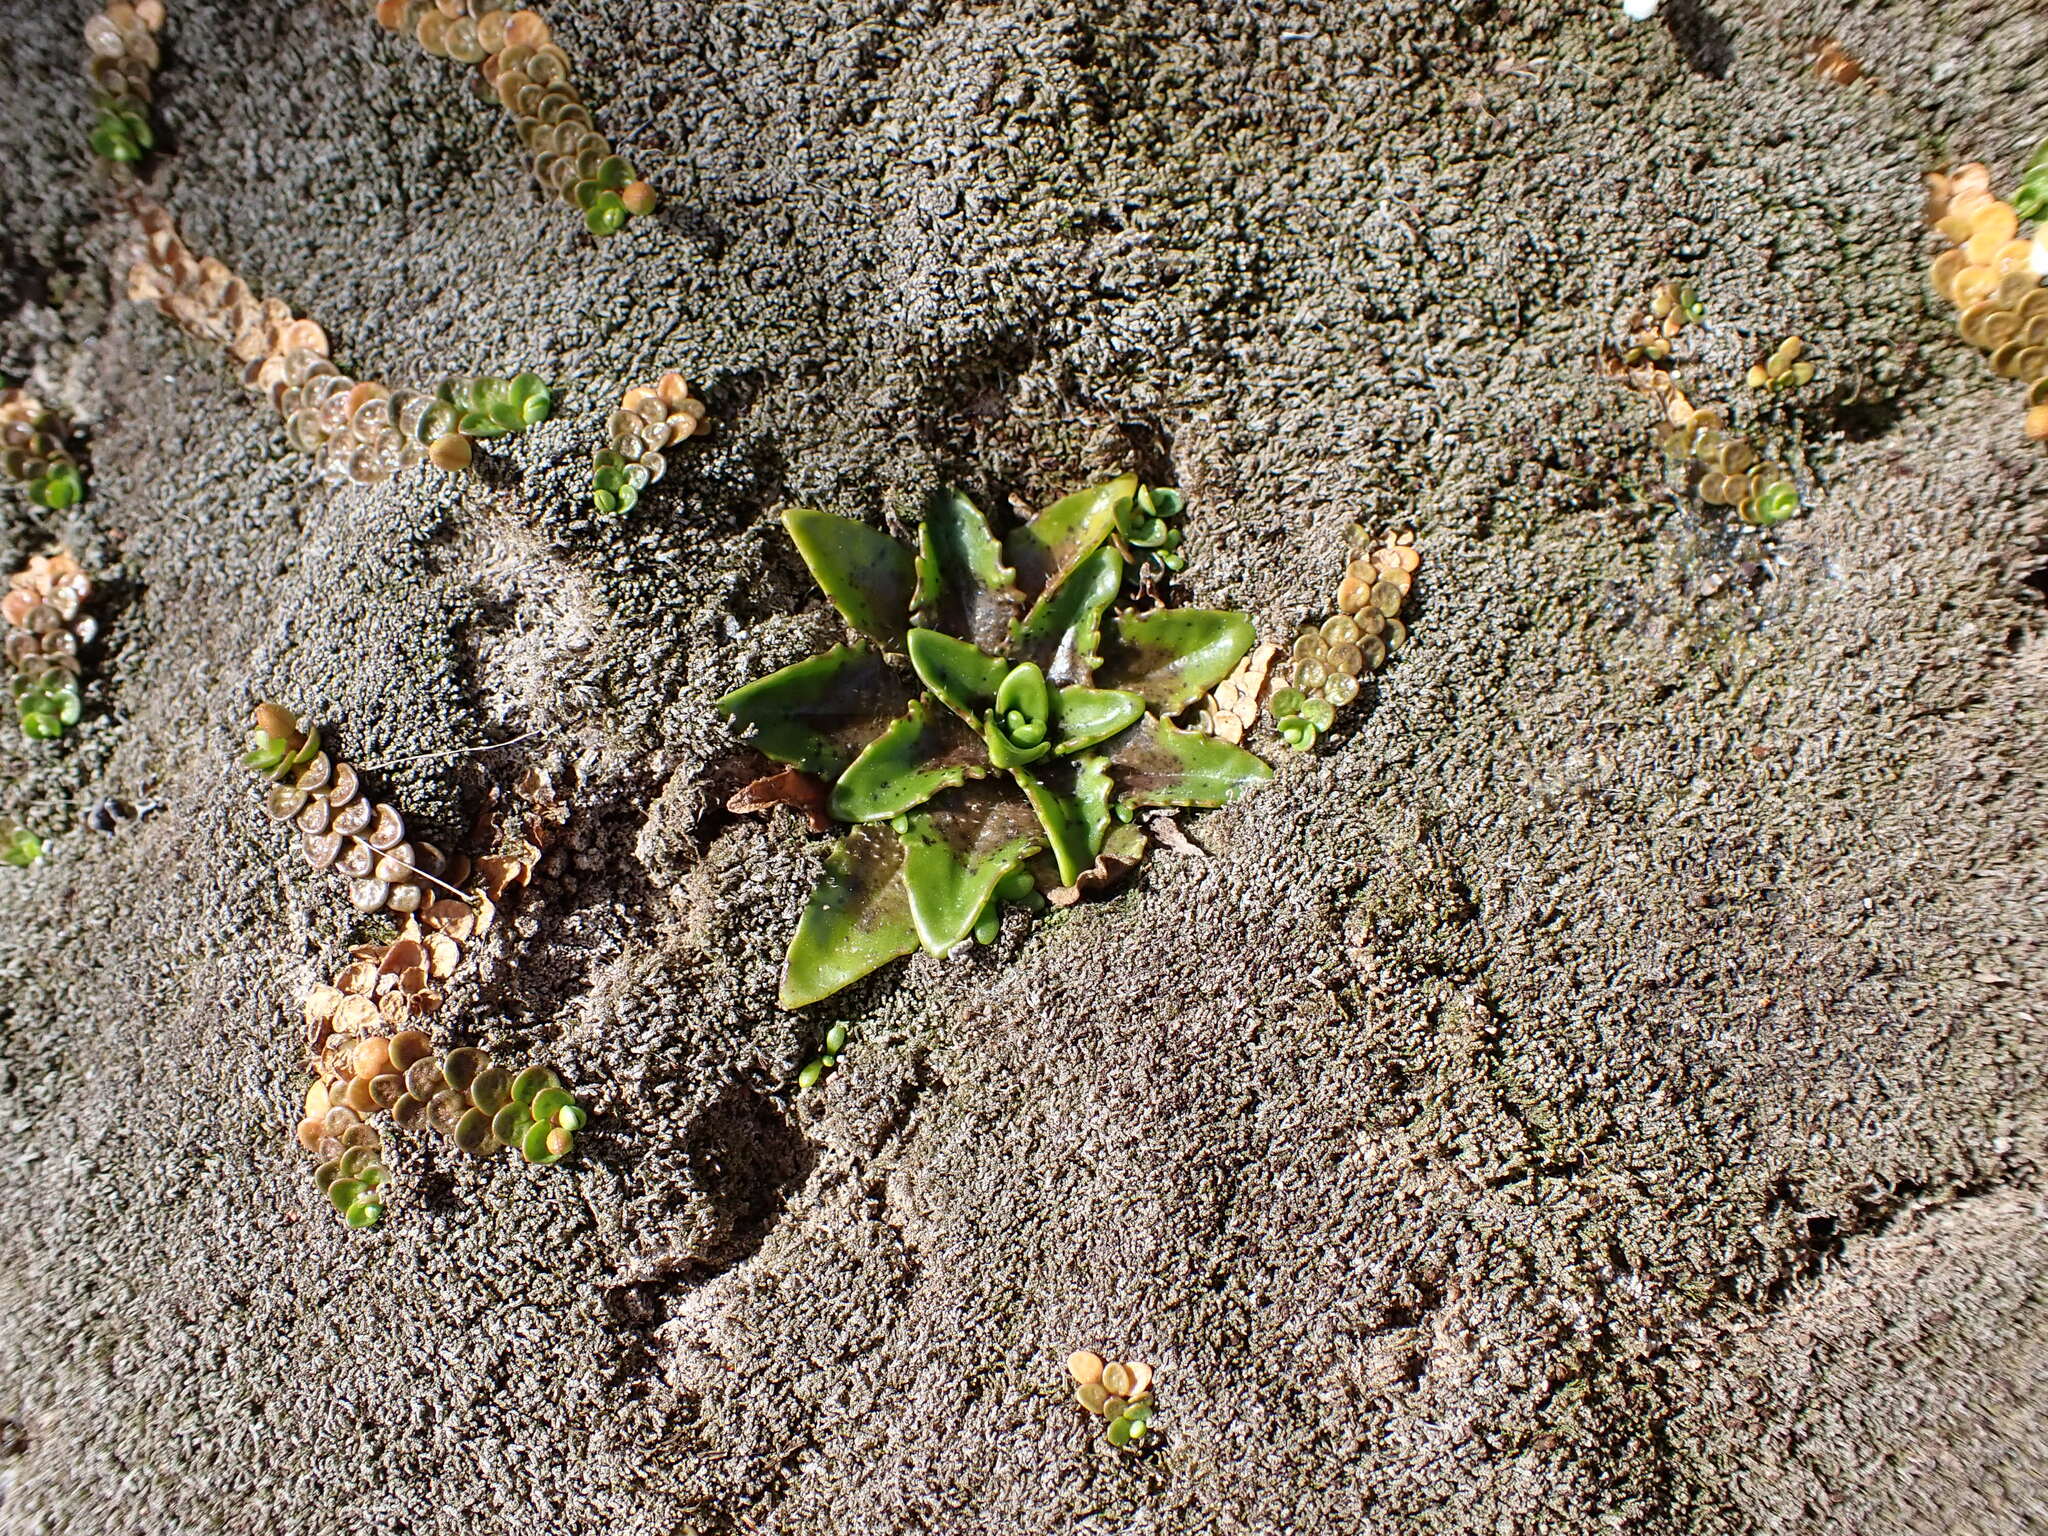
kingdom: Plantae
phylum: Tracheophyta
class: Magnoliopsida
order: Lamiales
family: Plantaginaceae
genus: Plantago
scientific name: Plantago triandra
